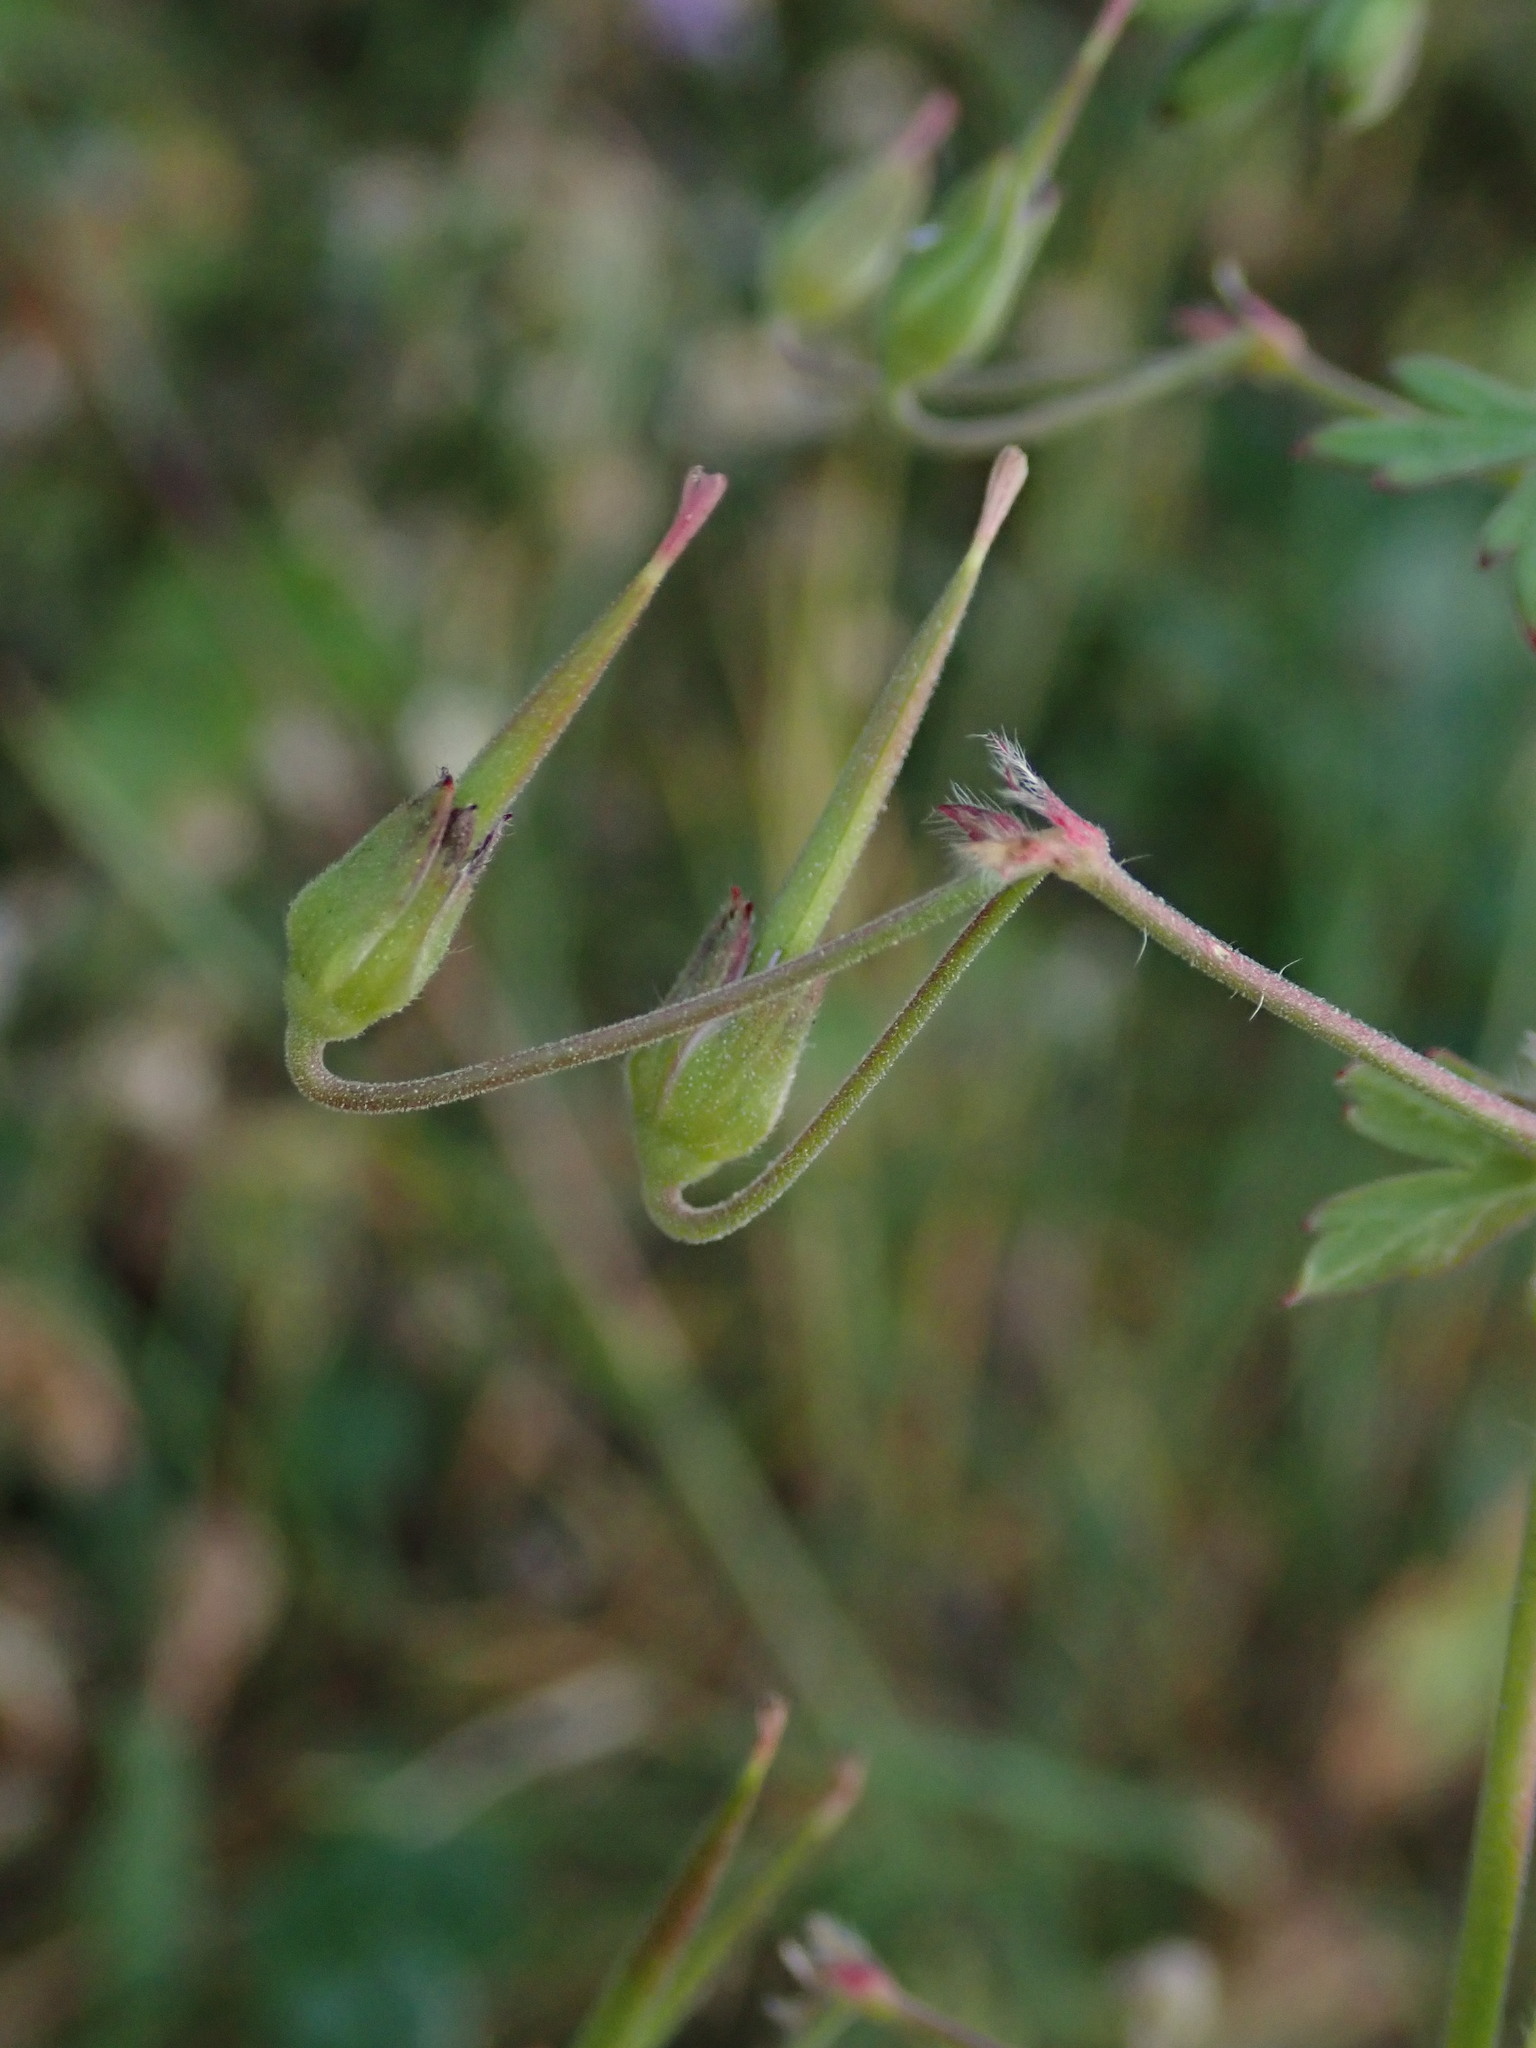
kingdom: Plantae
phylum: Tracheophyta
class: Magnoliopsida
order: Geraniales
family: Geraniaceae
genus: Geranium
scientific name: Geranium pyrenaicum
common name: Hedgerow crane's-bill
